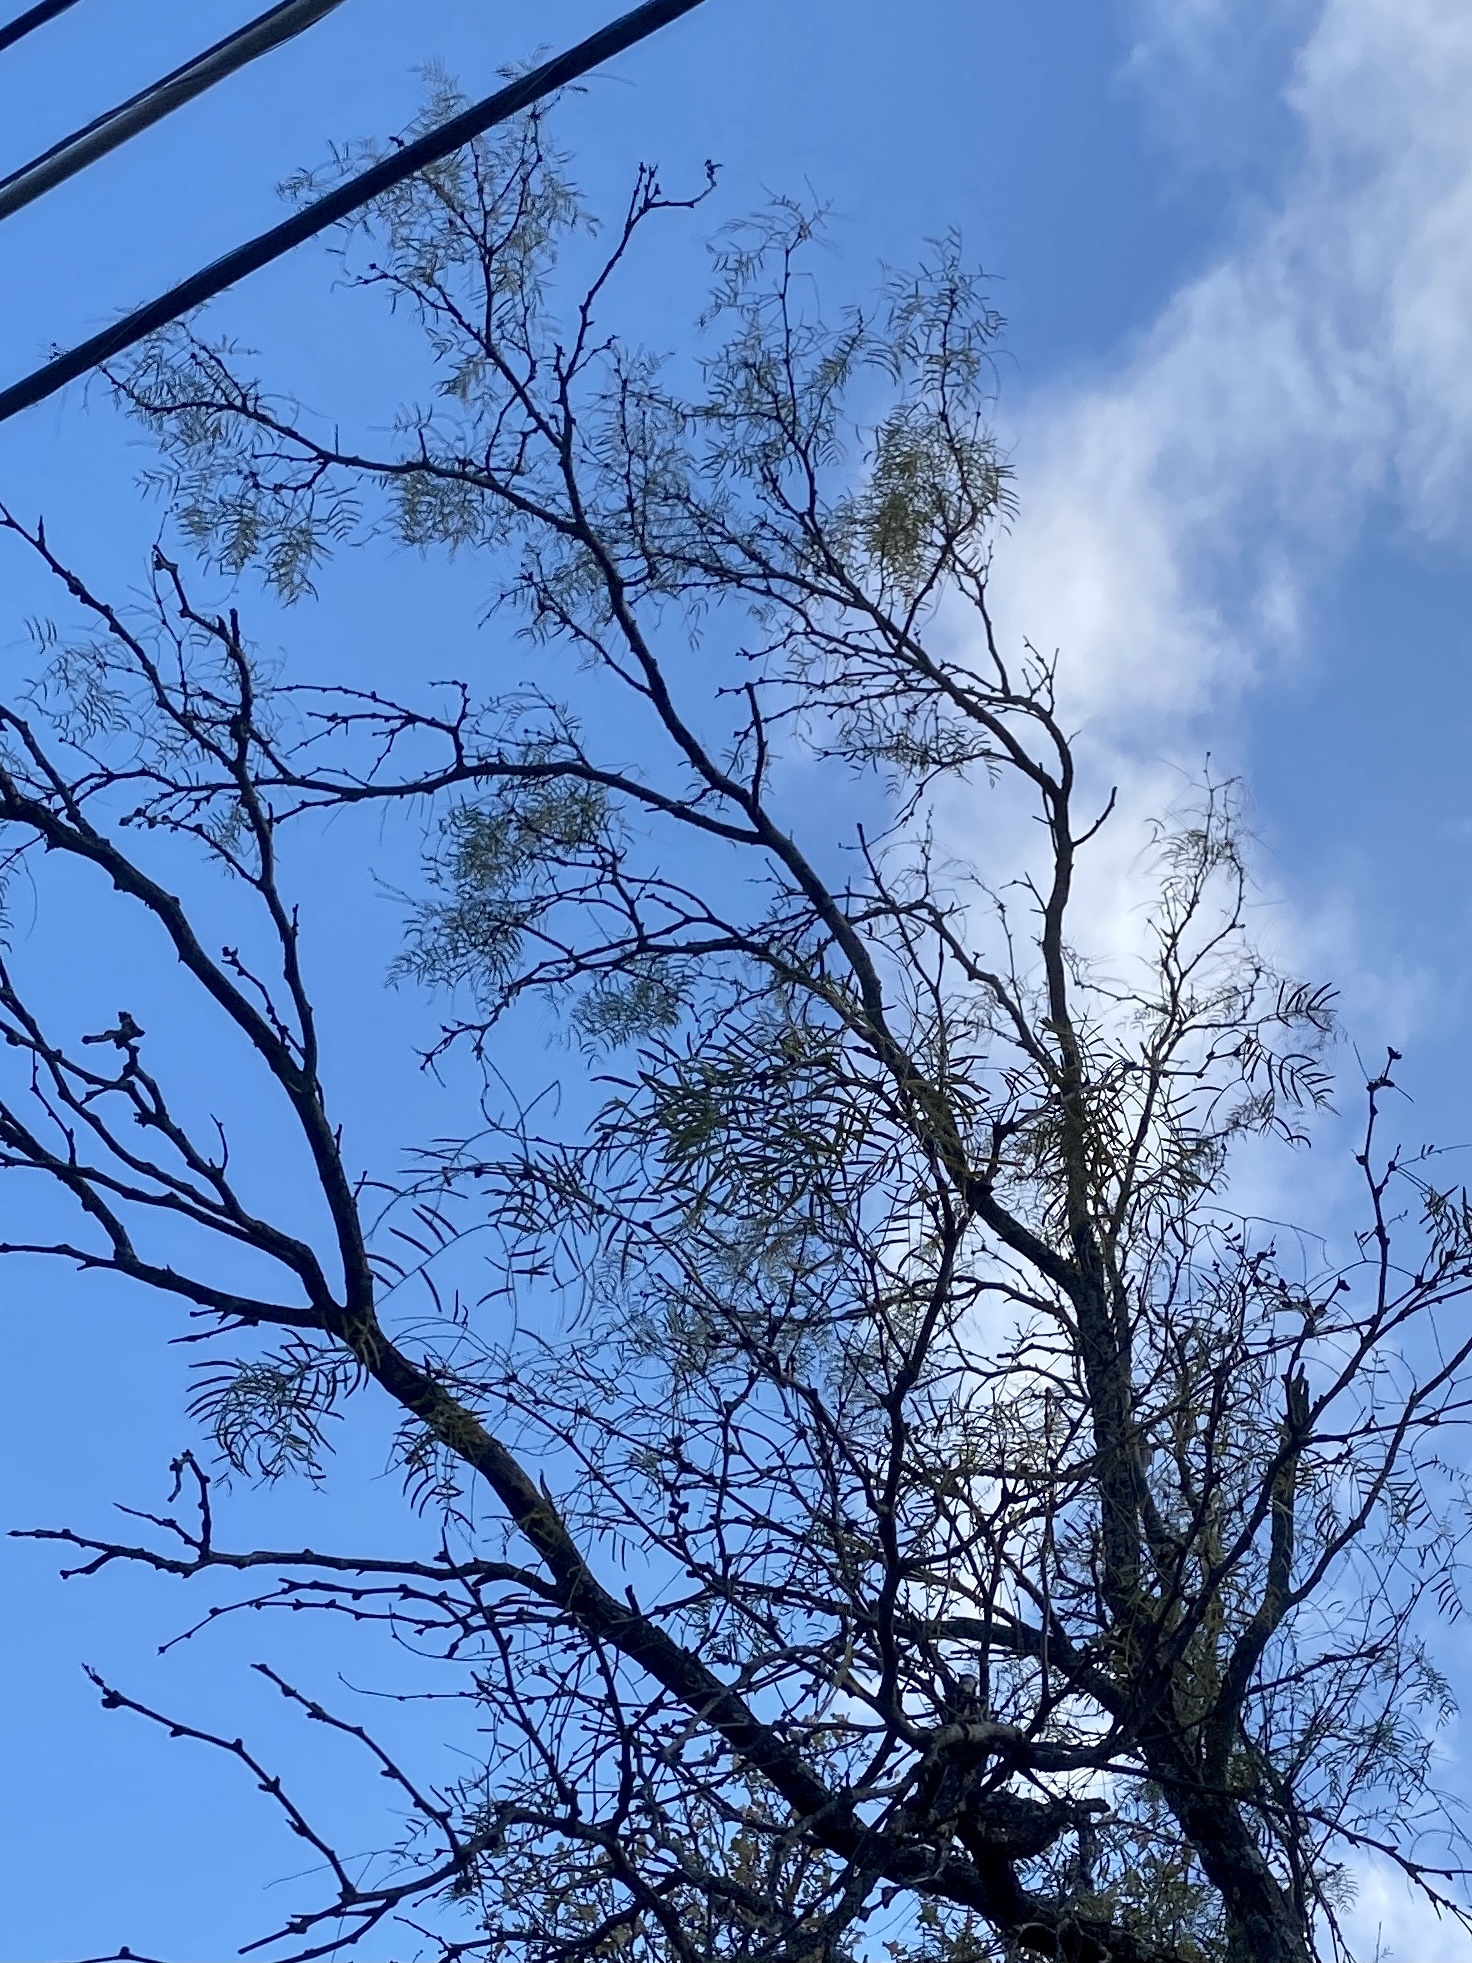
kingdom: Plantae
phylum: Tracheophyta
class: Magnoliopsida
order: Fabales
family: Fabaceae
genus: Prosopis
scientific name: Prosopis glandulosa
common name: Honey mesquite
